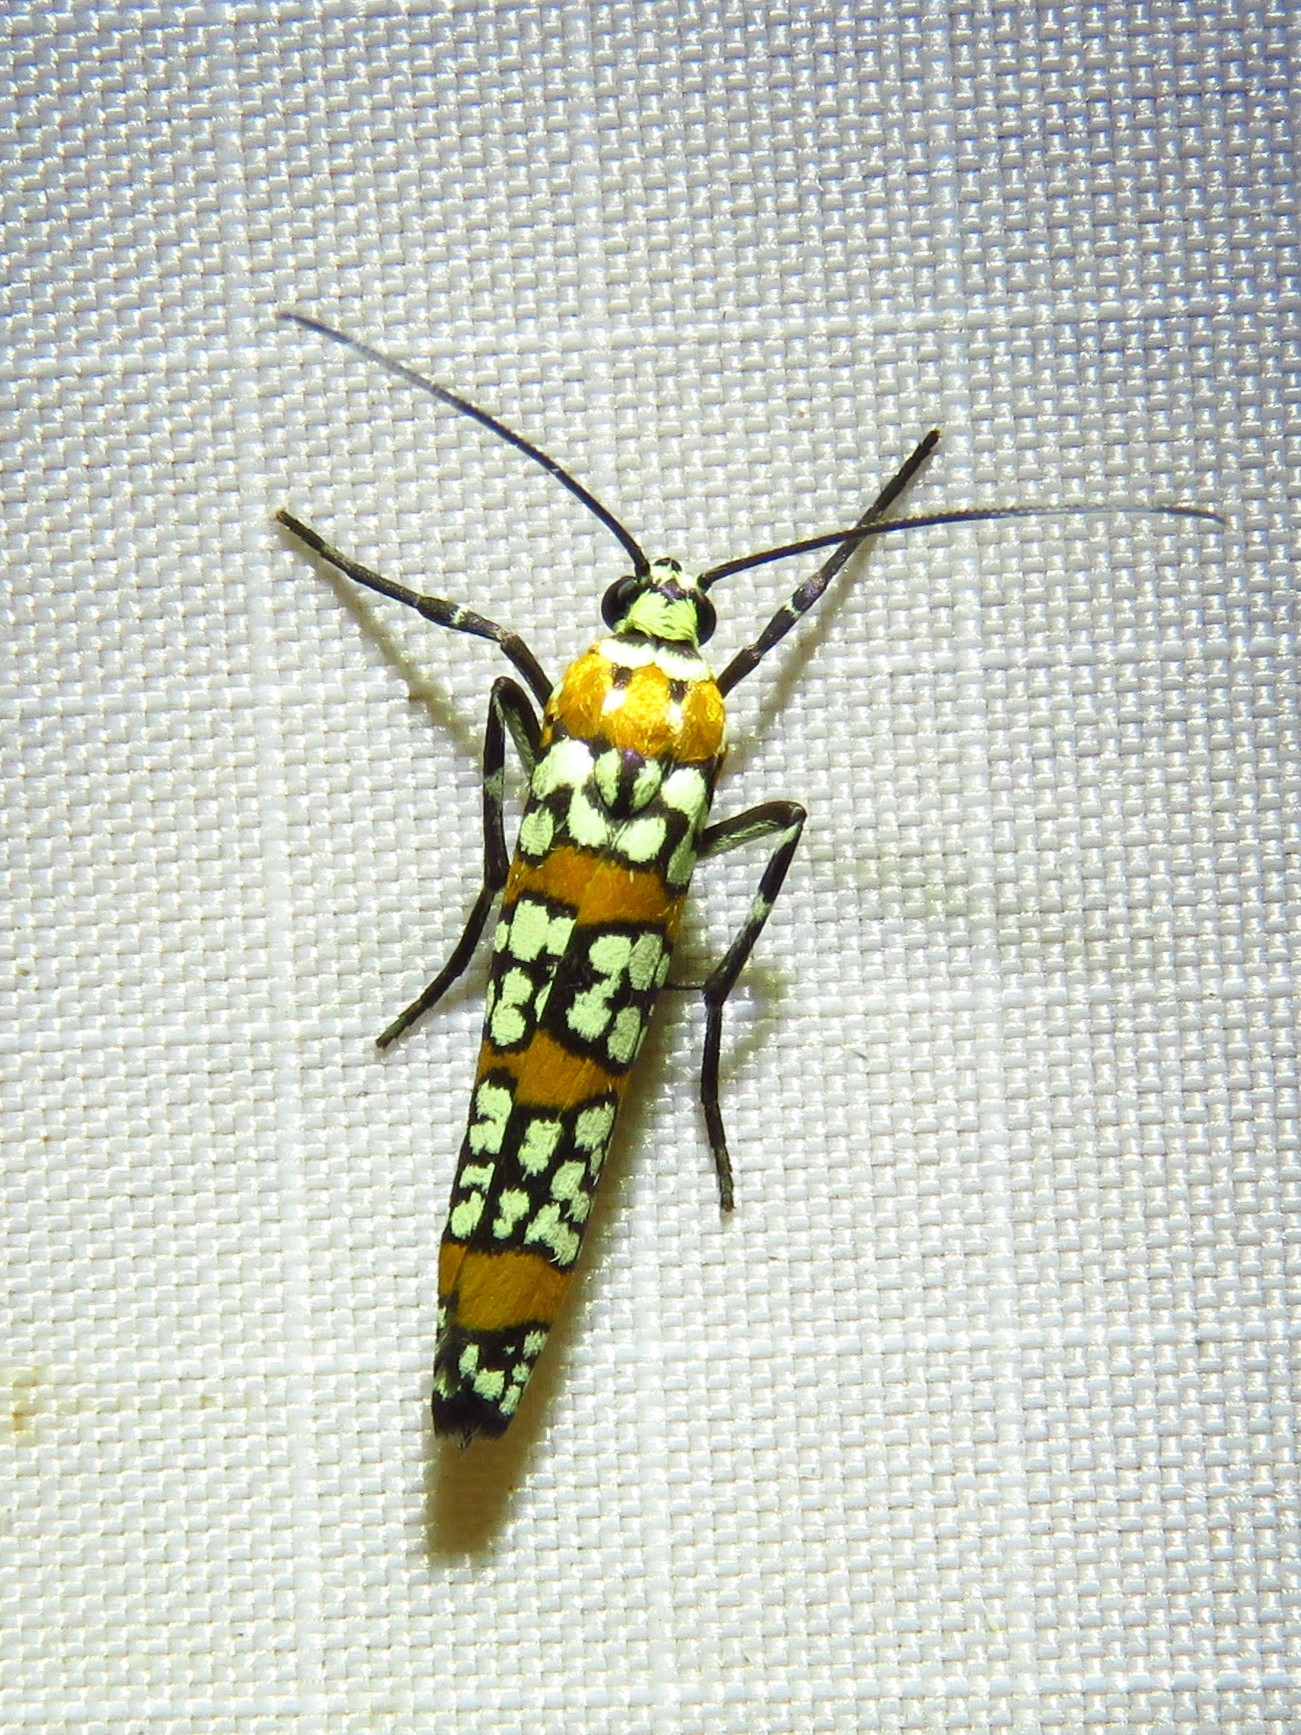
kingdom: Animalia
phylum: Arthropoda
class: Insecta
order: Lepidoptera
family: Attevidae
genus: Atteva
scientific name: Atteva punctella
